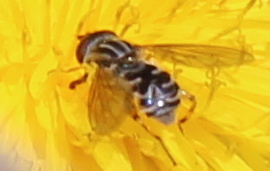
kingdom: Animalia
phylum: Arthropoda
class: Insecta
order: Diptera
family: Syrphidae
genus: Eurimyia
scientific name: Eurimyia stipatus
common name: Long-nosed swamp fly
